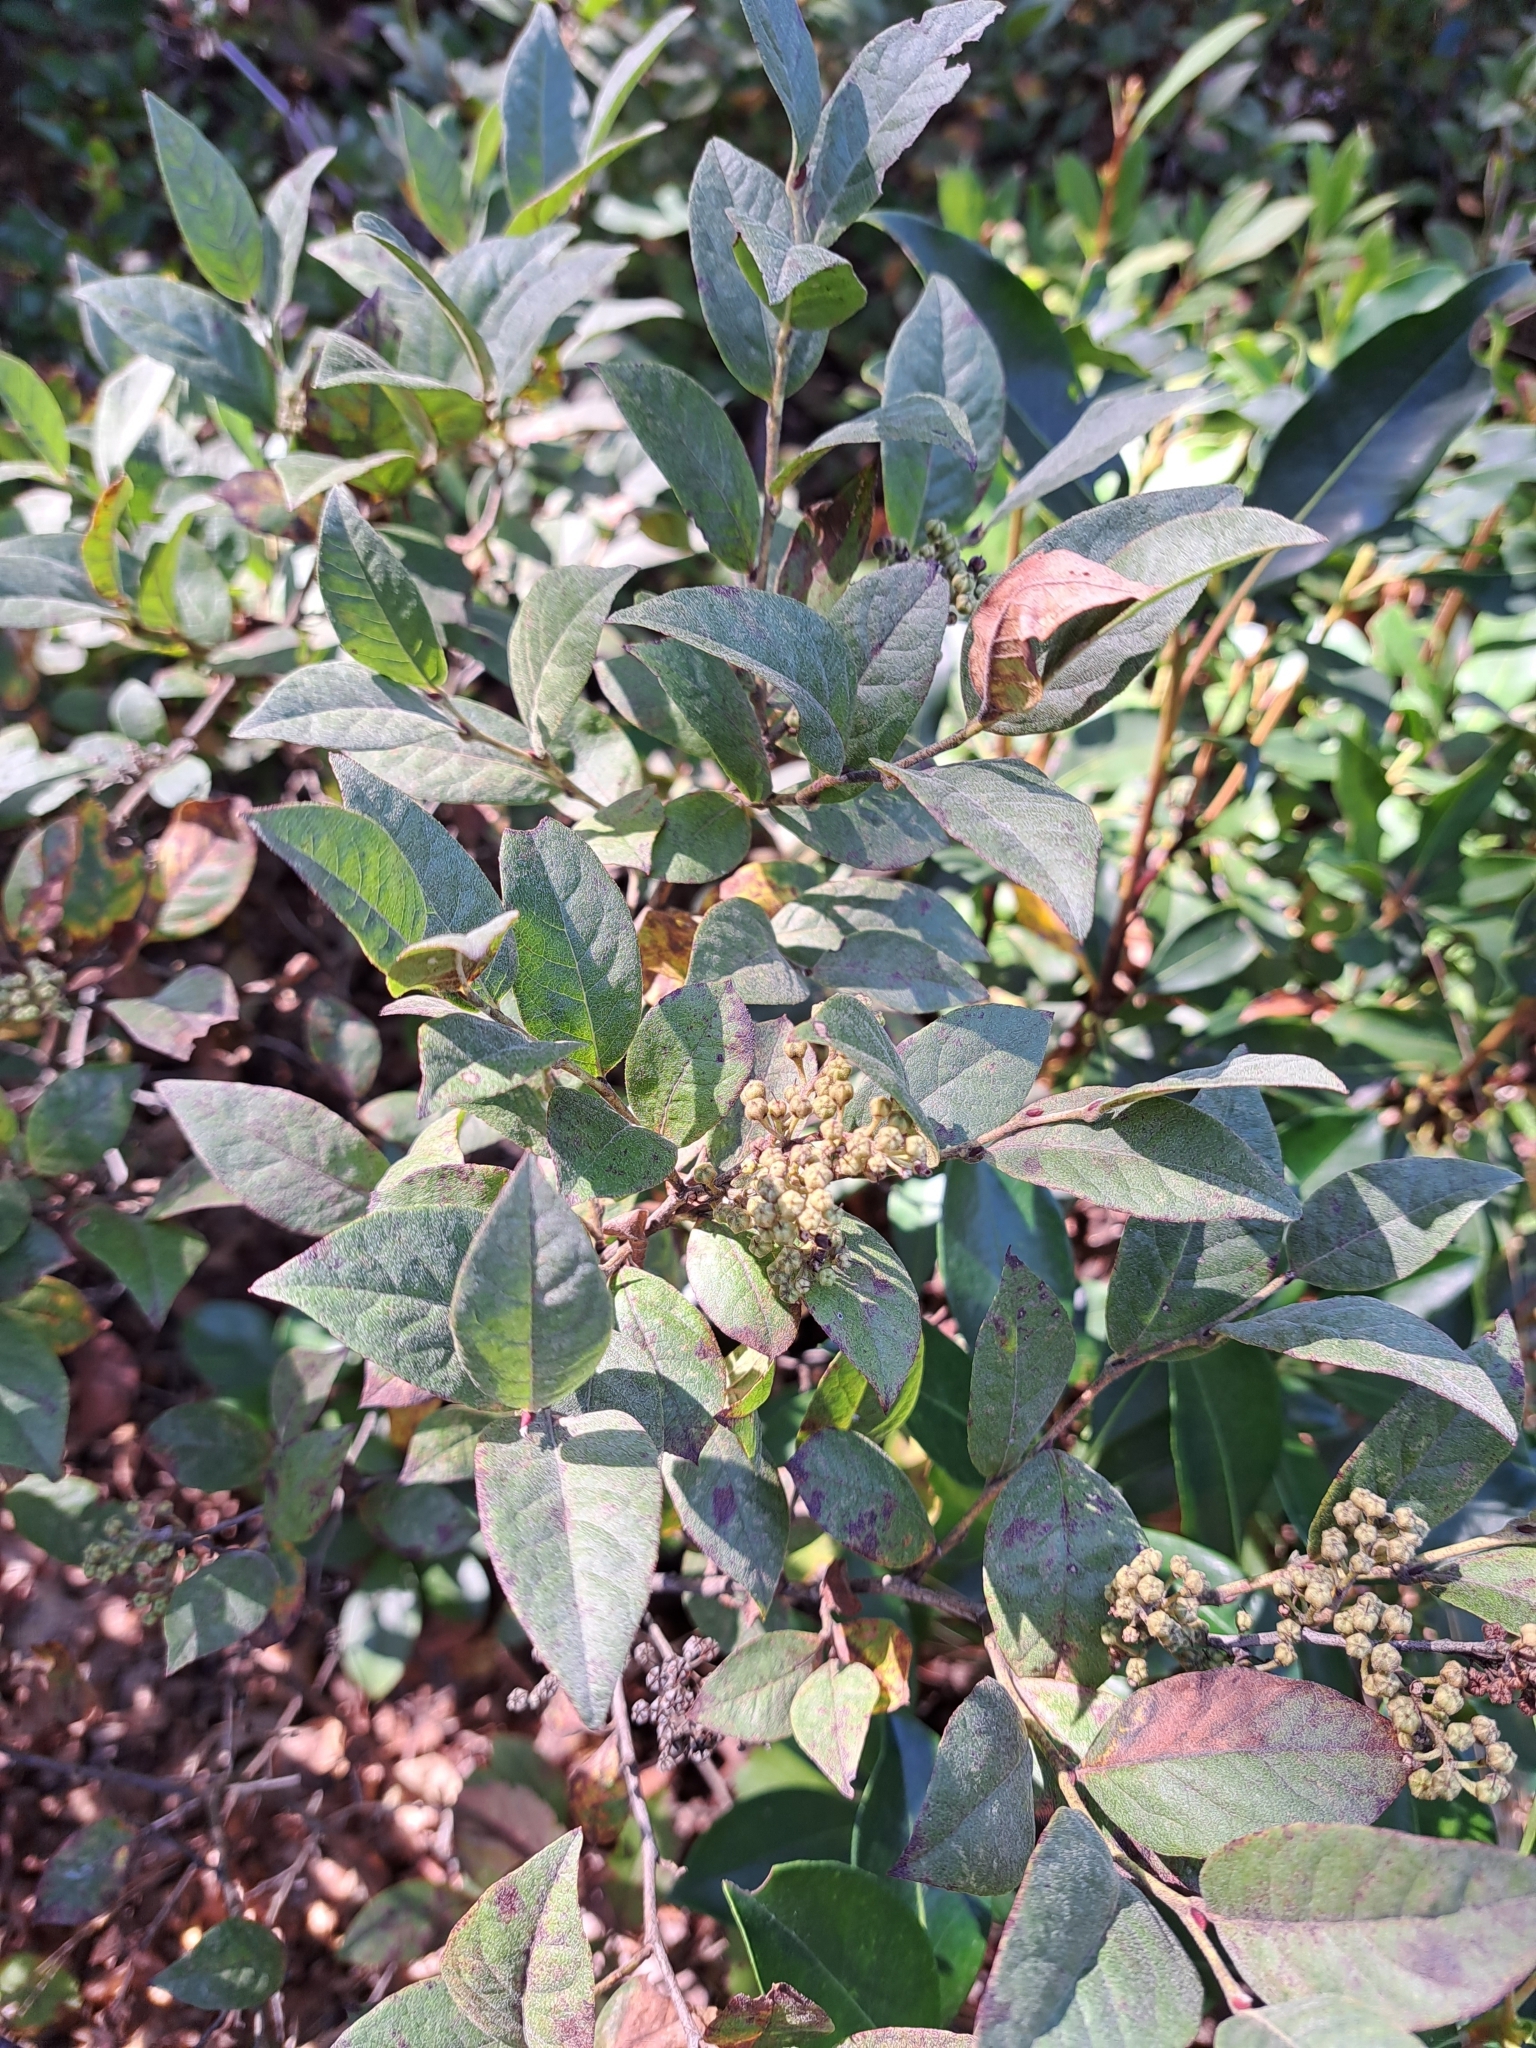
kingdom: Plantae
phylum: Tracheophyta
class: Magnoliopsida
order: Ericales
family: Ericaceae
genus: Lyonia
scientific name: Lyonia ligustrina
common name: Maleberry
